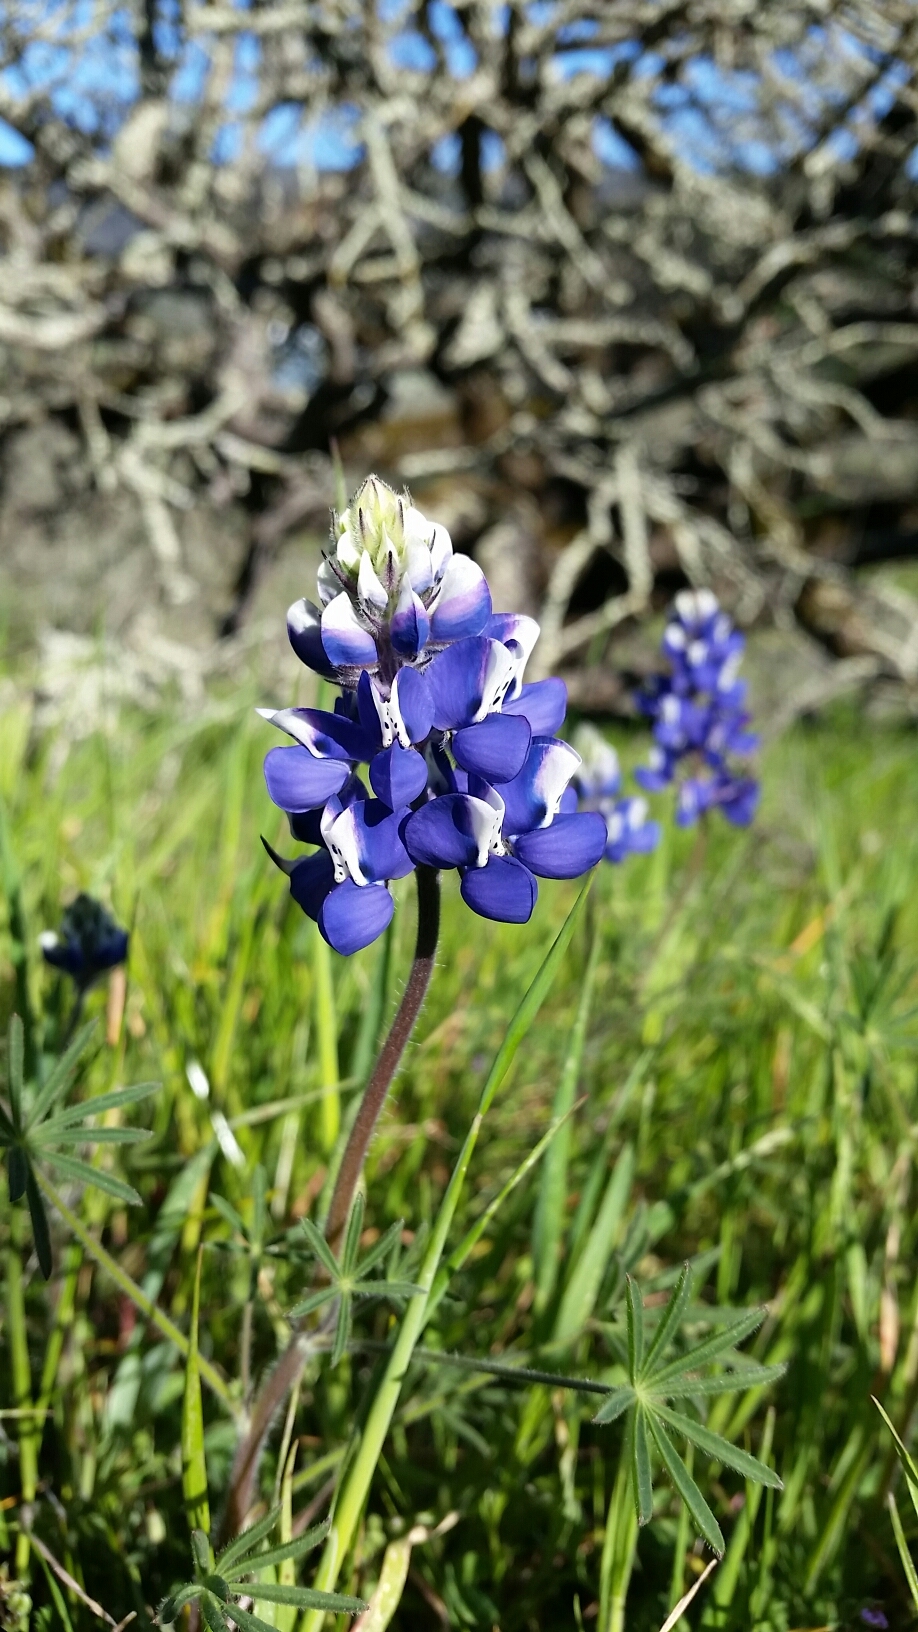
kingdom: Plantae
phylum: Tracheophyta
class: Magnoliopsida
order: Fabales
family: Fabaceae
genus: Lupinus
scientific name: Lupinus nanus
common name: Orean blue lupin
